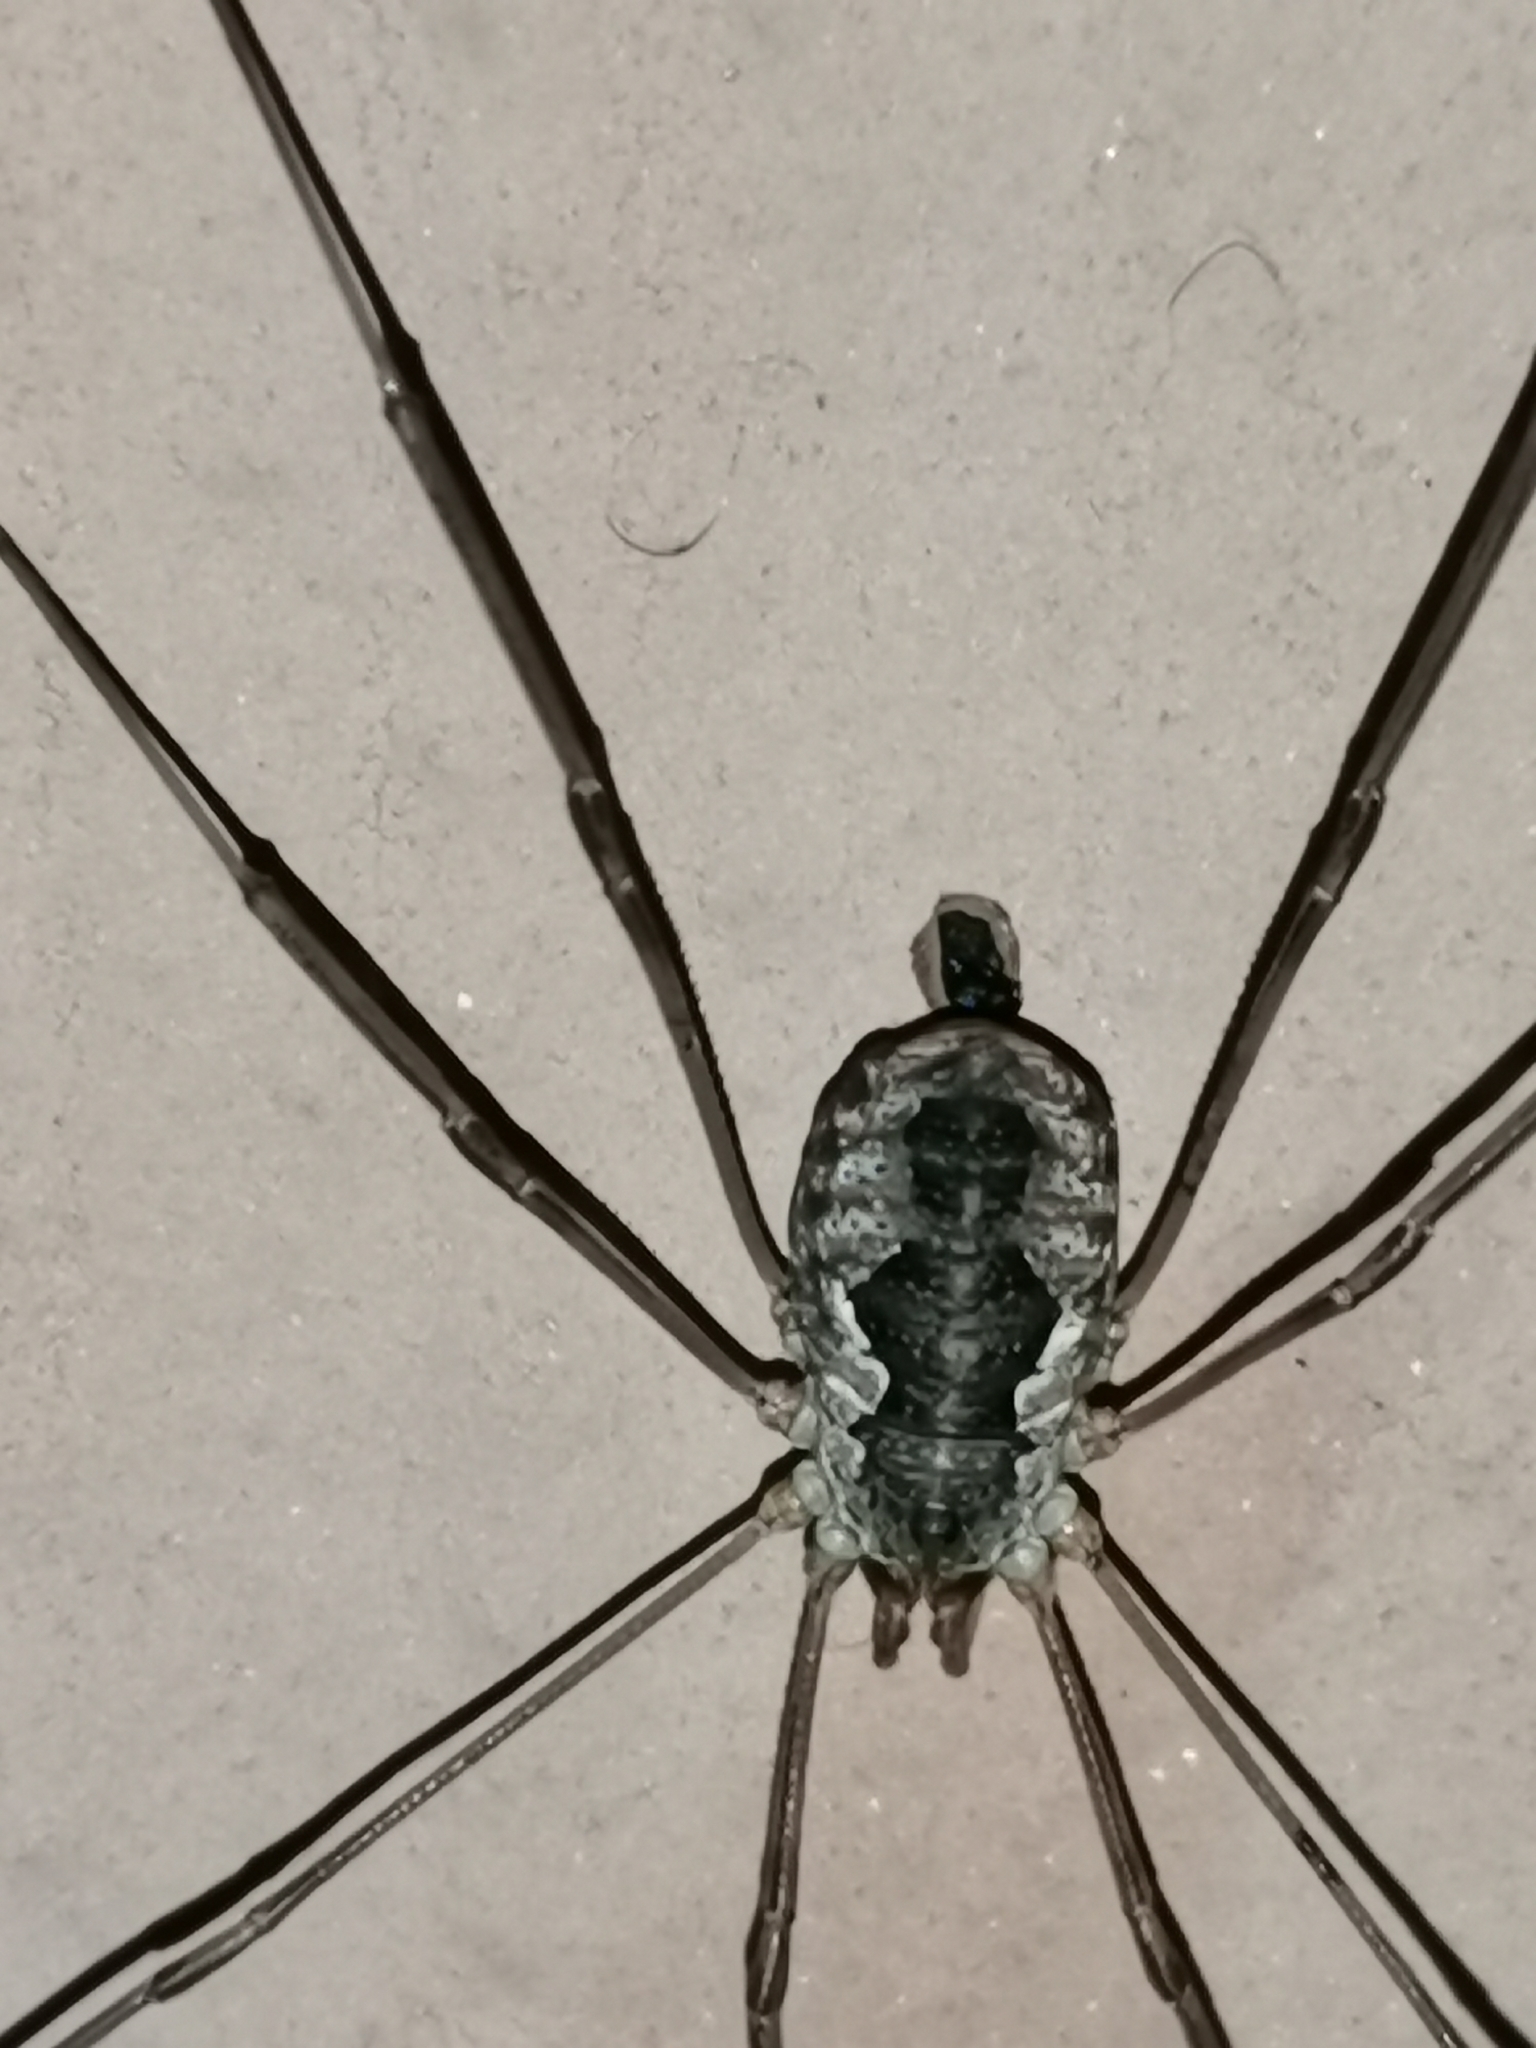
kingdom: Animalia
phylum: Arthropoda
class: Arachnida
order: Opiliones
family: Phalangiidae
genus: Phalangium
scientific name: Phalangium opilio
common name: Daddy longleg
